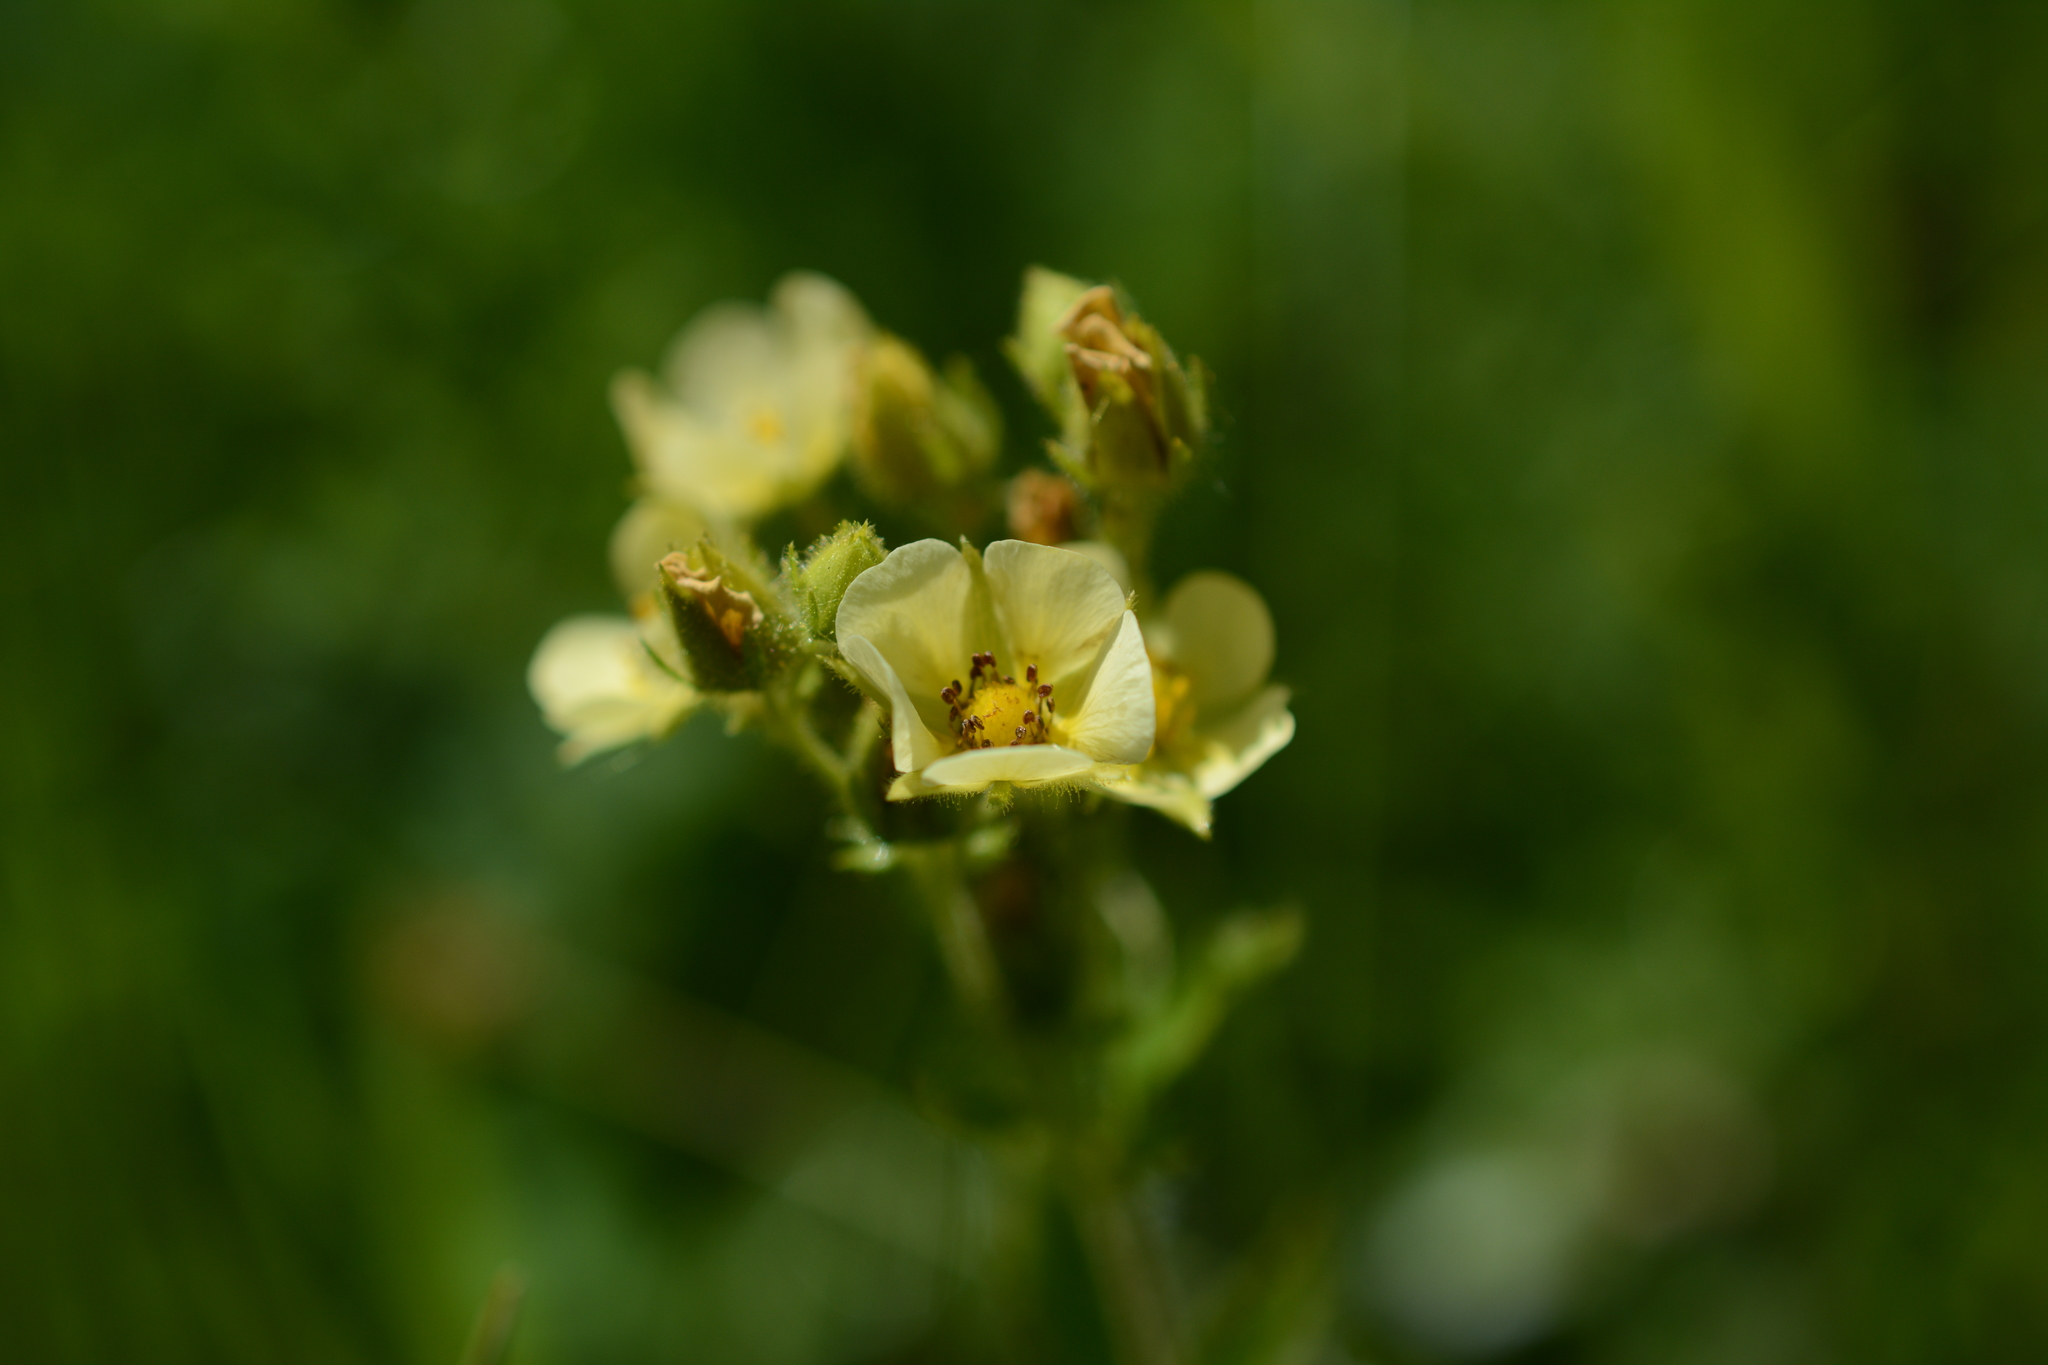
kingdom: Plantae
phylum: Tracheophyta
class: Magnoliopsida
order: Rosales
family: Rosaceae
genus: Drymocallis
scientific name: Drymocallis convallaria
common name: Cream cinquefoil
